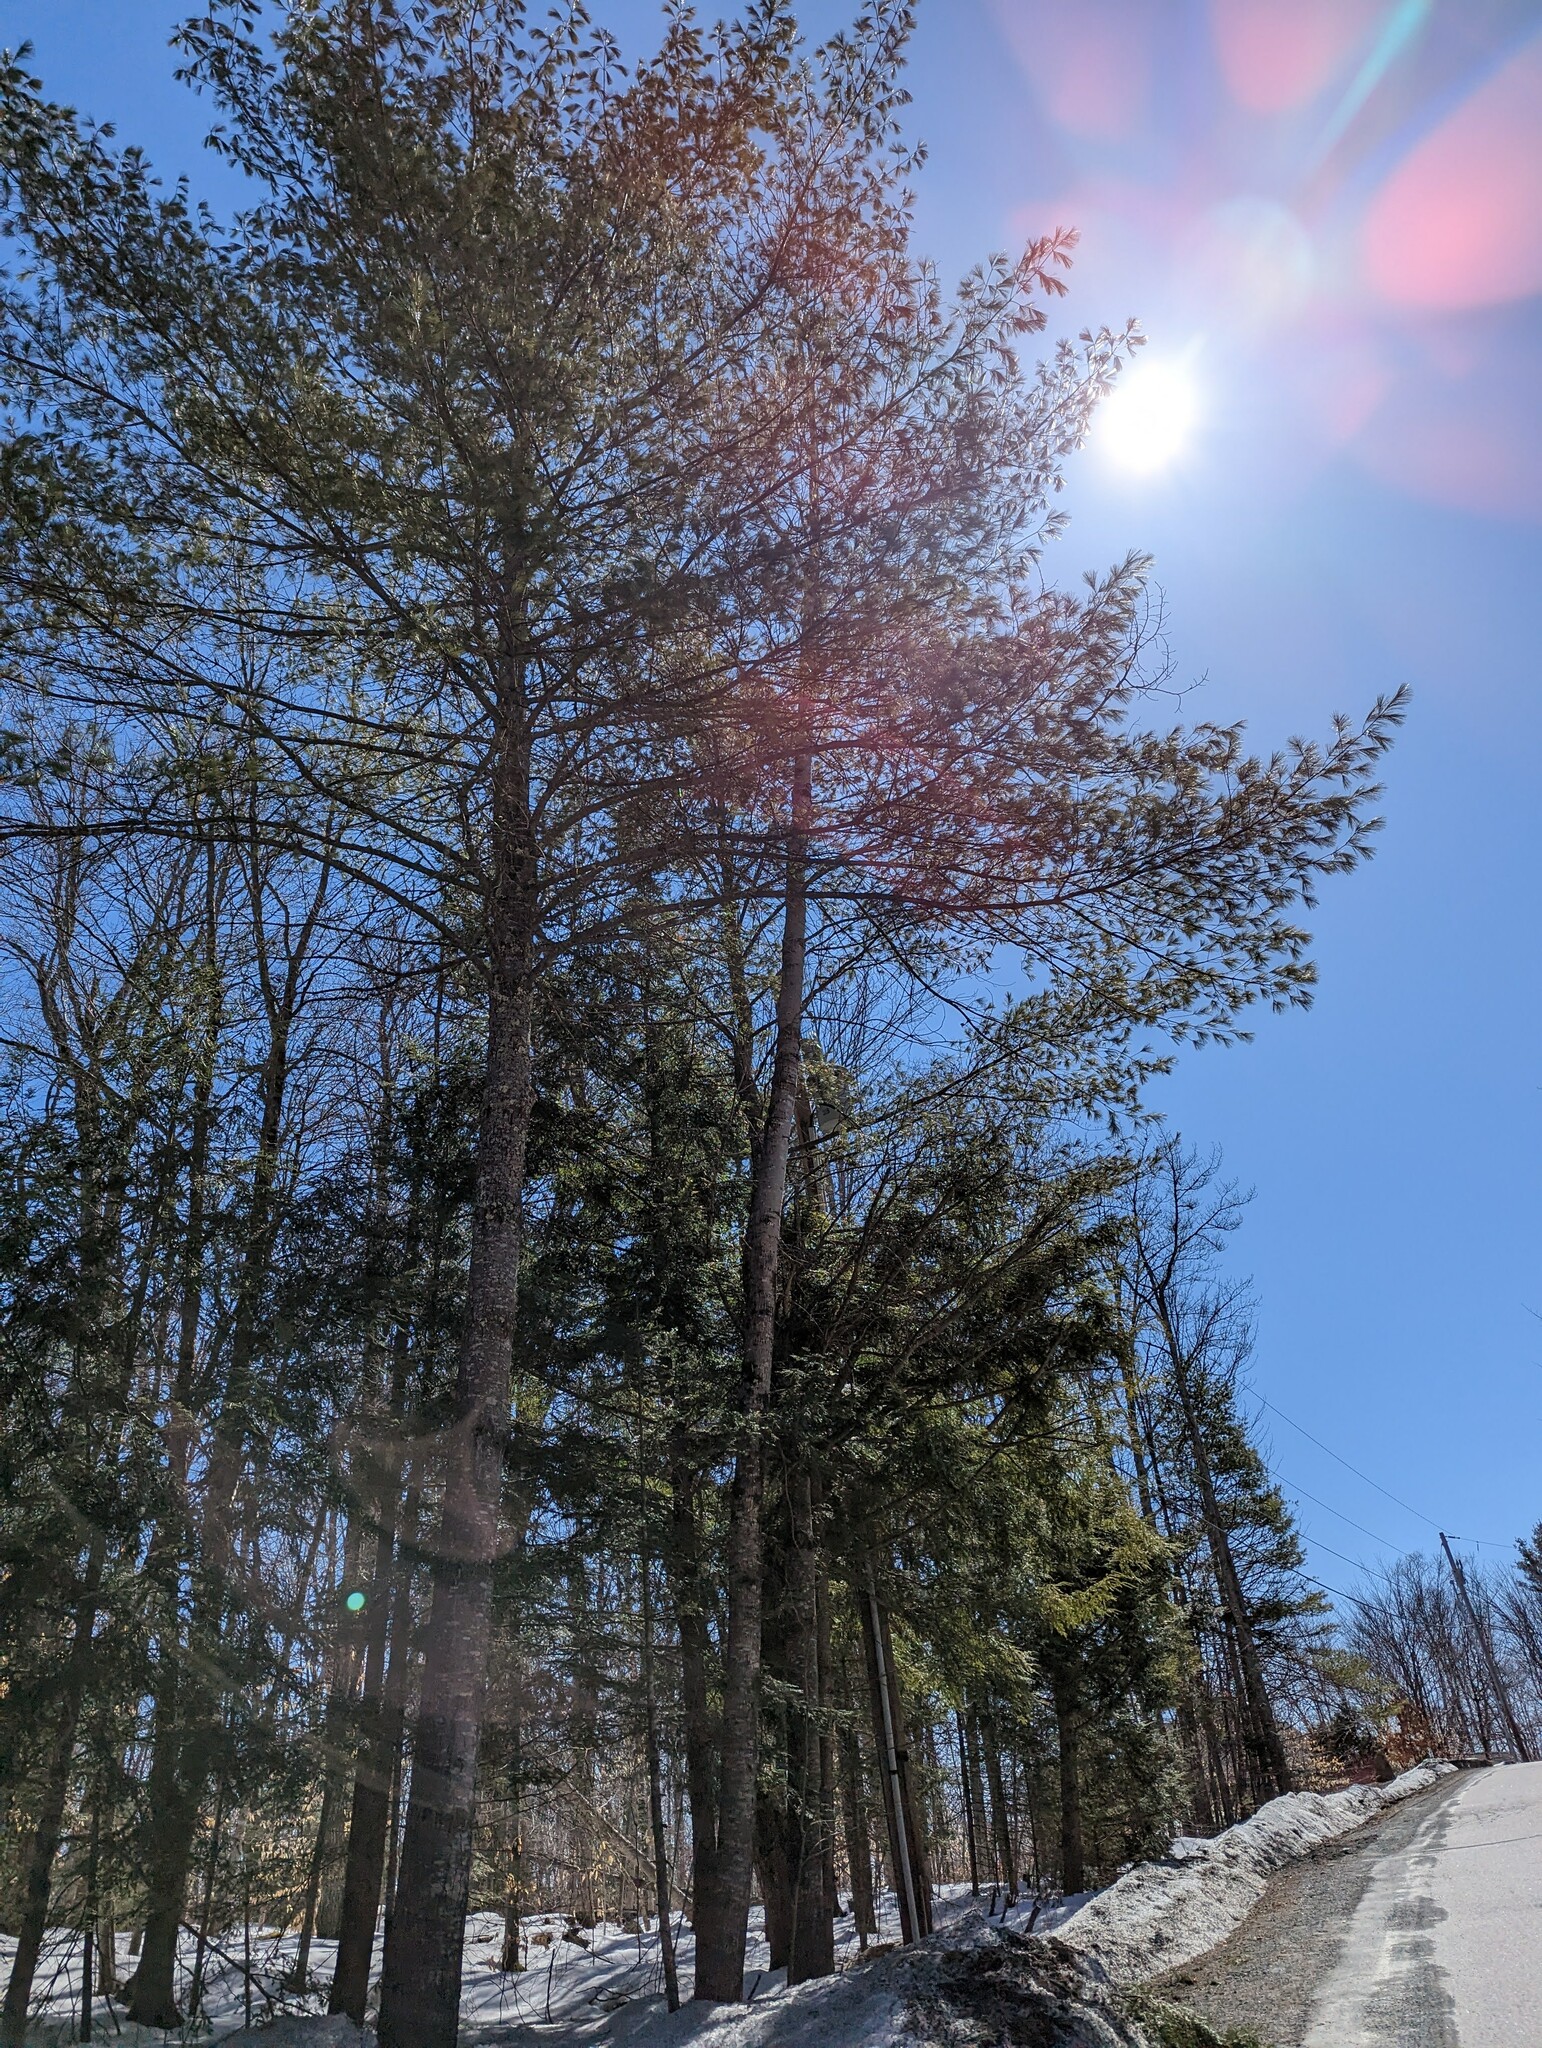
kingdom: Plantae
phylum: Tracheophyta
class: Pinopsida
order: Pinales
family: Pinaceae
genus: Pinus
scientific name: Pinus strobus
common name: Weymouth pine
